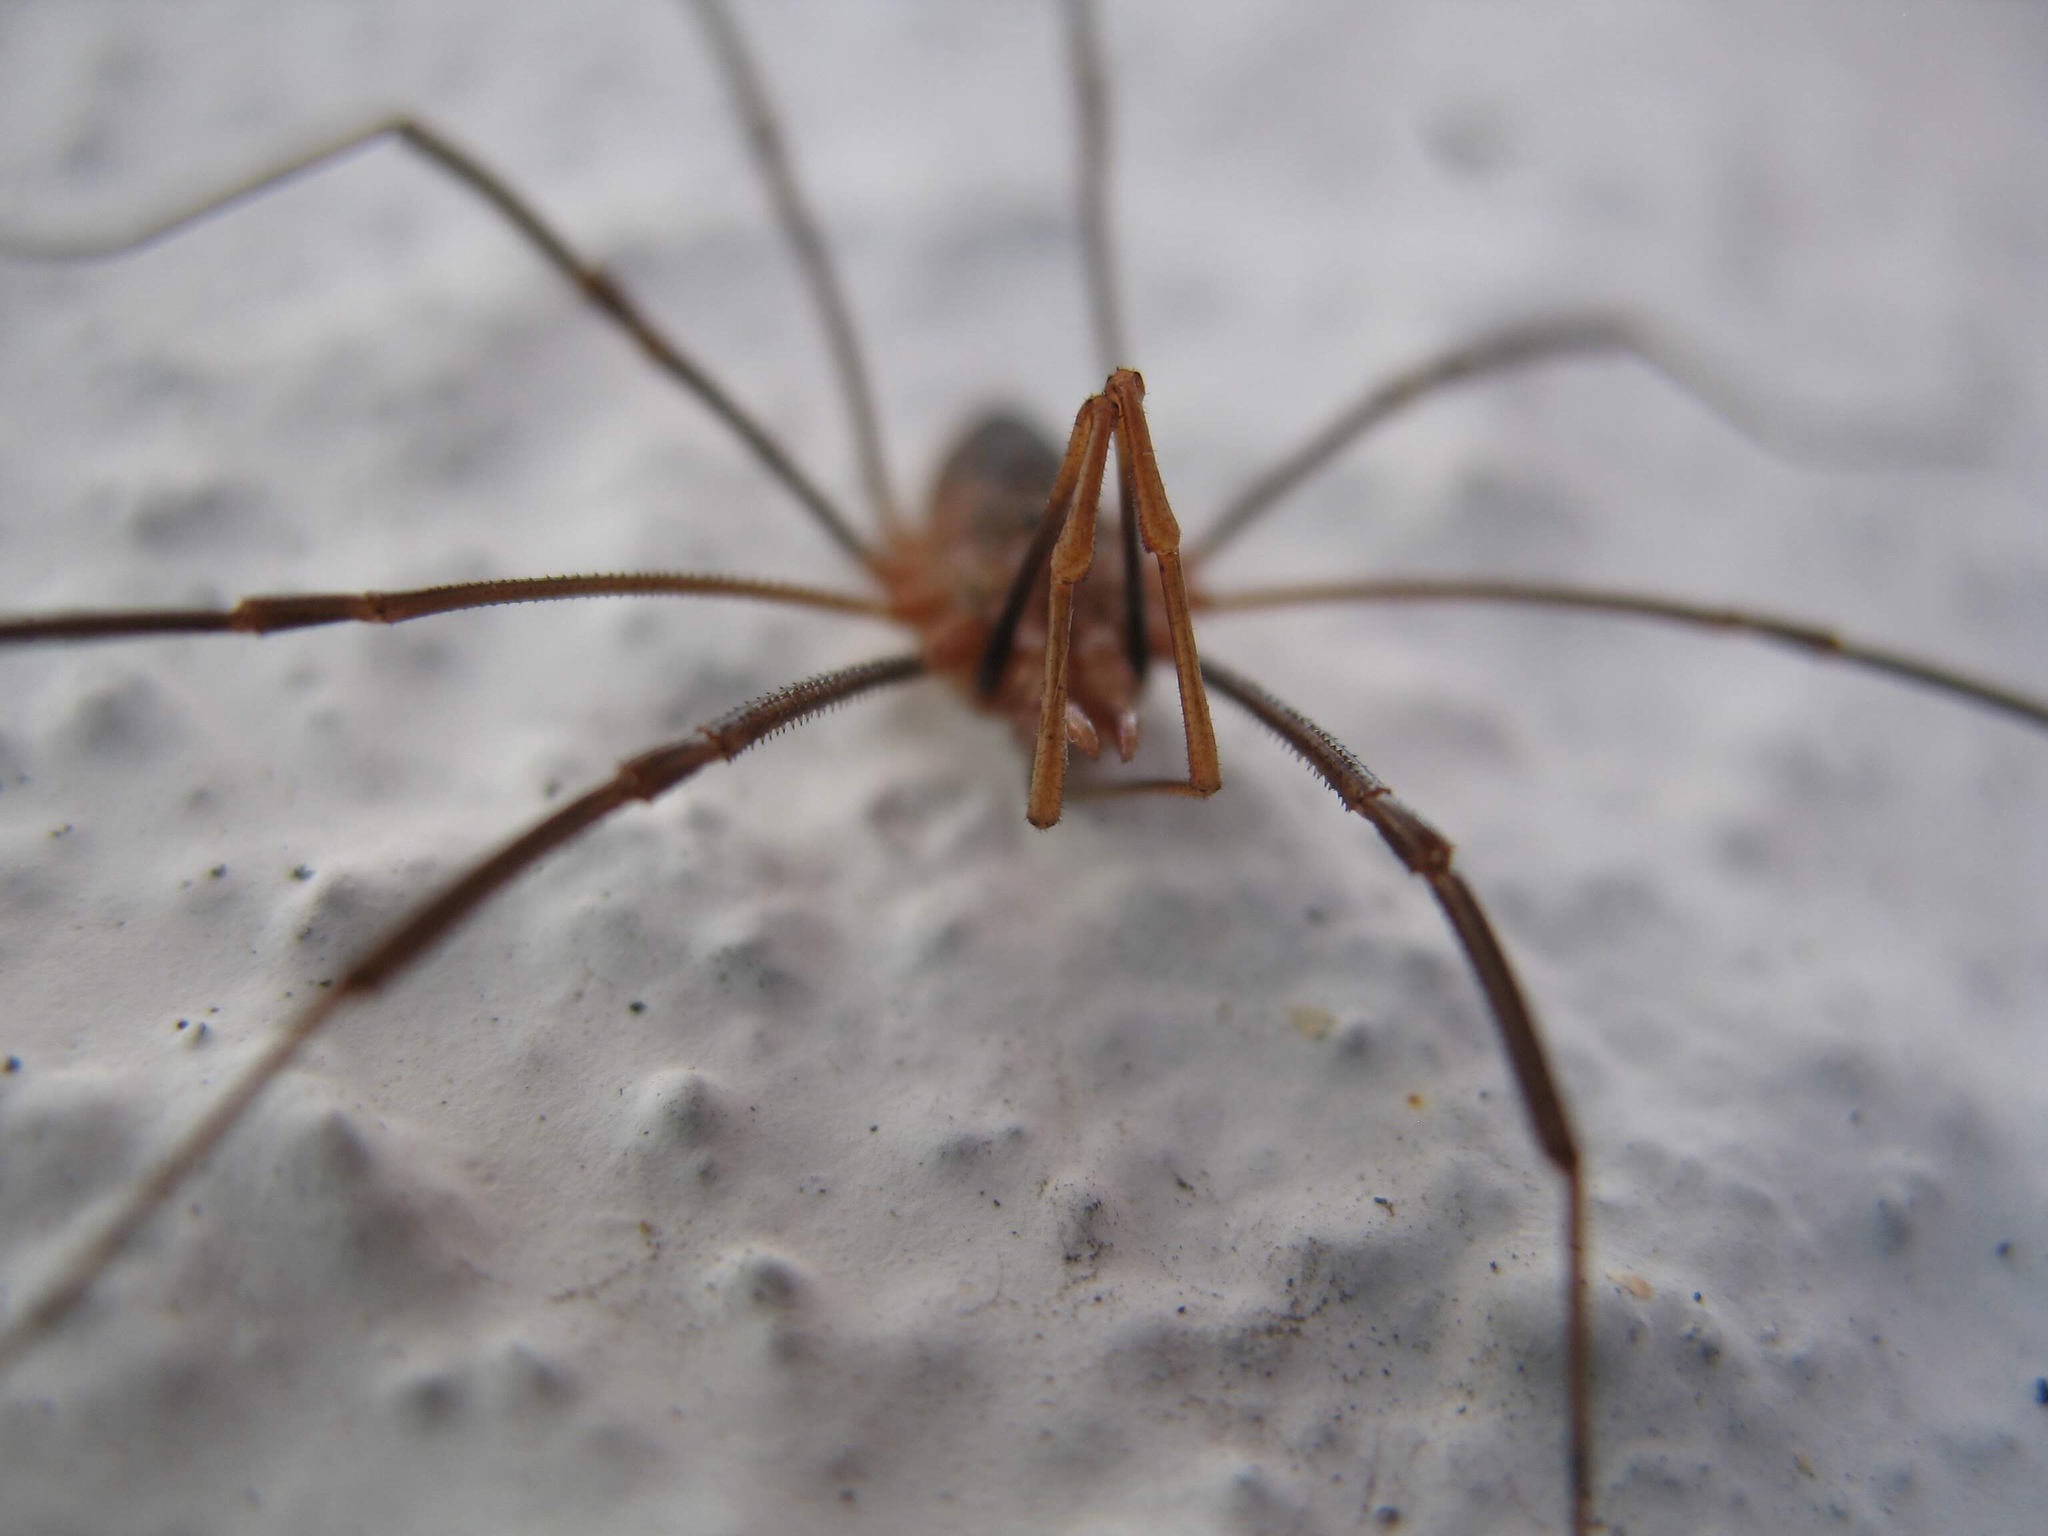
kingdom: Animalia
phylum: Arthropoda
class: Arachnida
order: Opiliones
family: Phalangiidae
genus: Phalangium
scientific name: Phalangium opilio
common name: Daddy longleg
